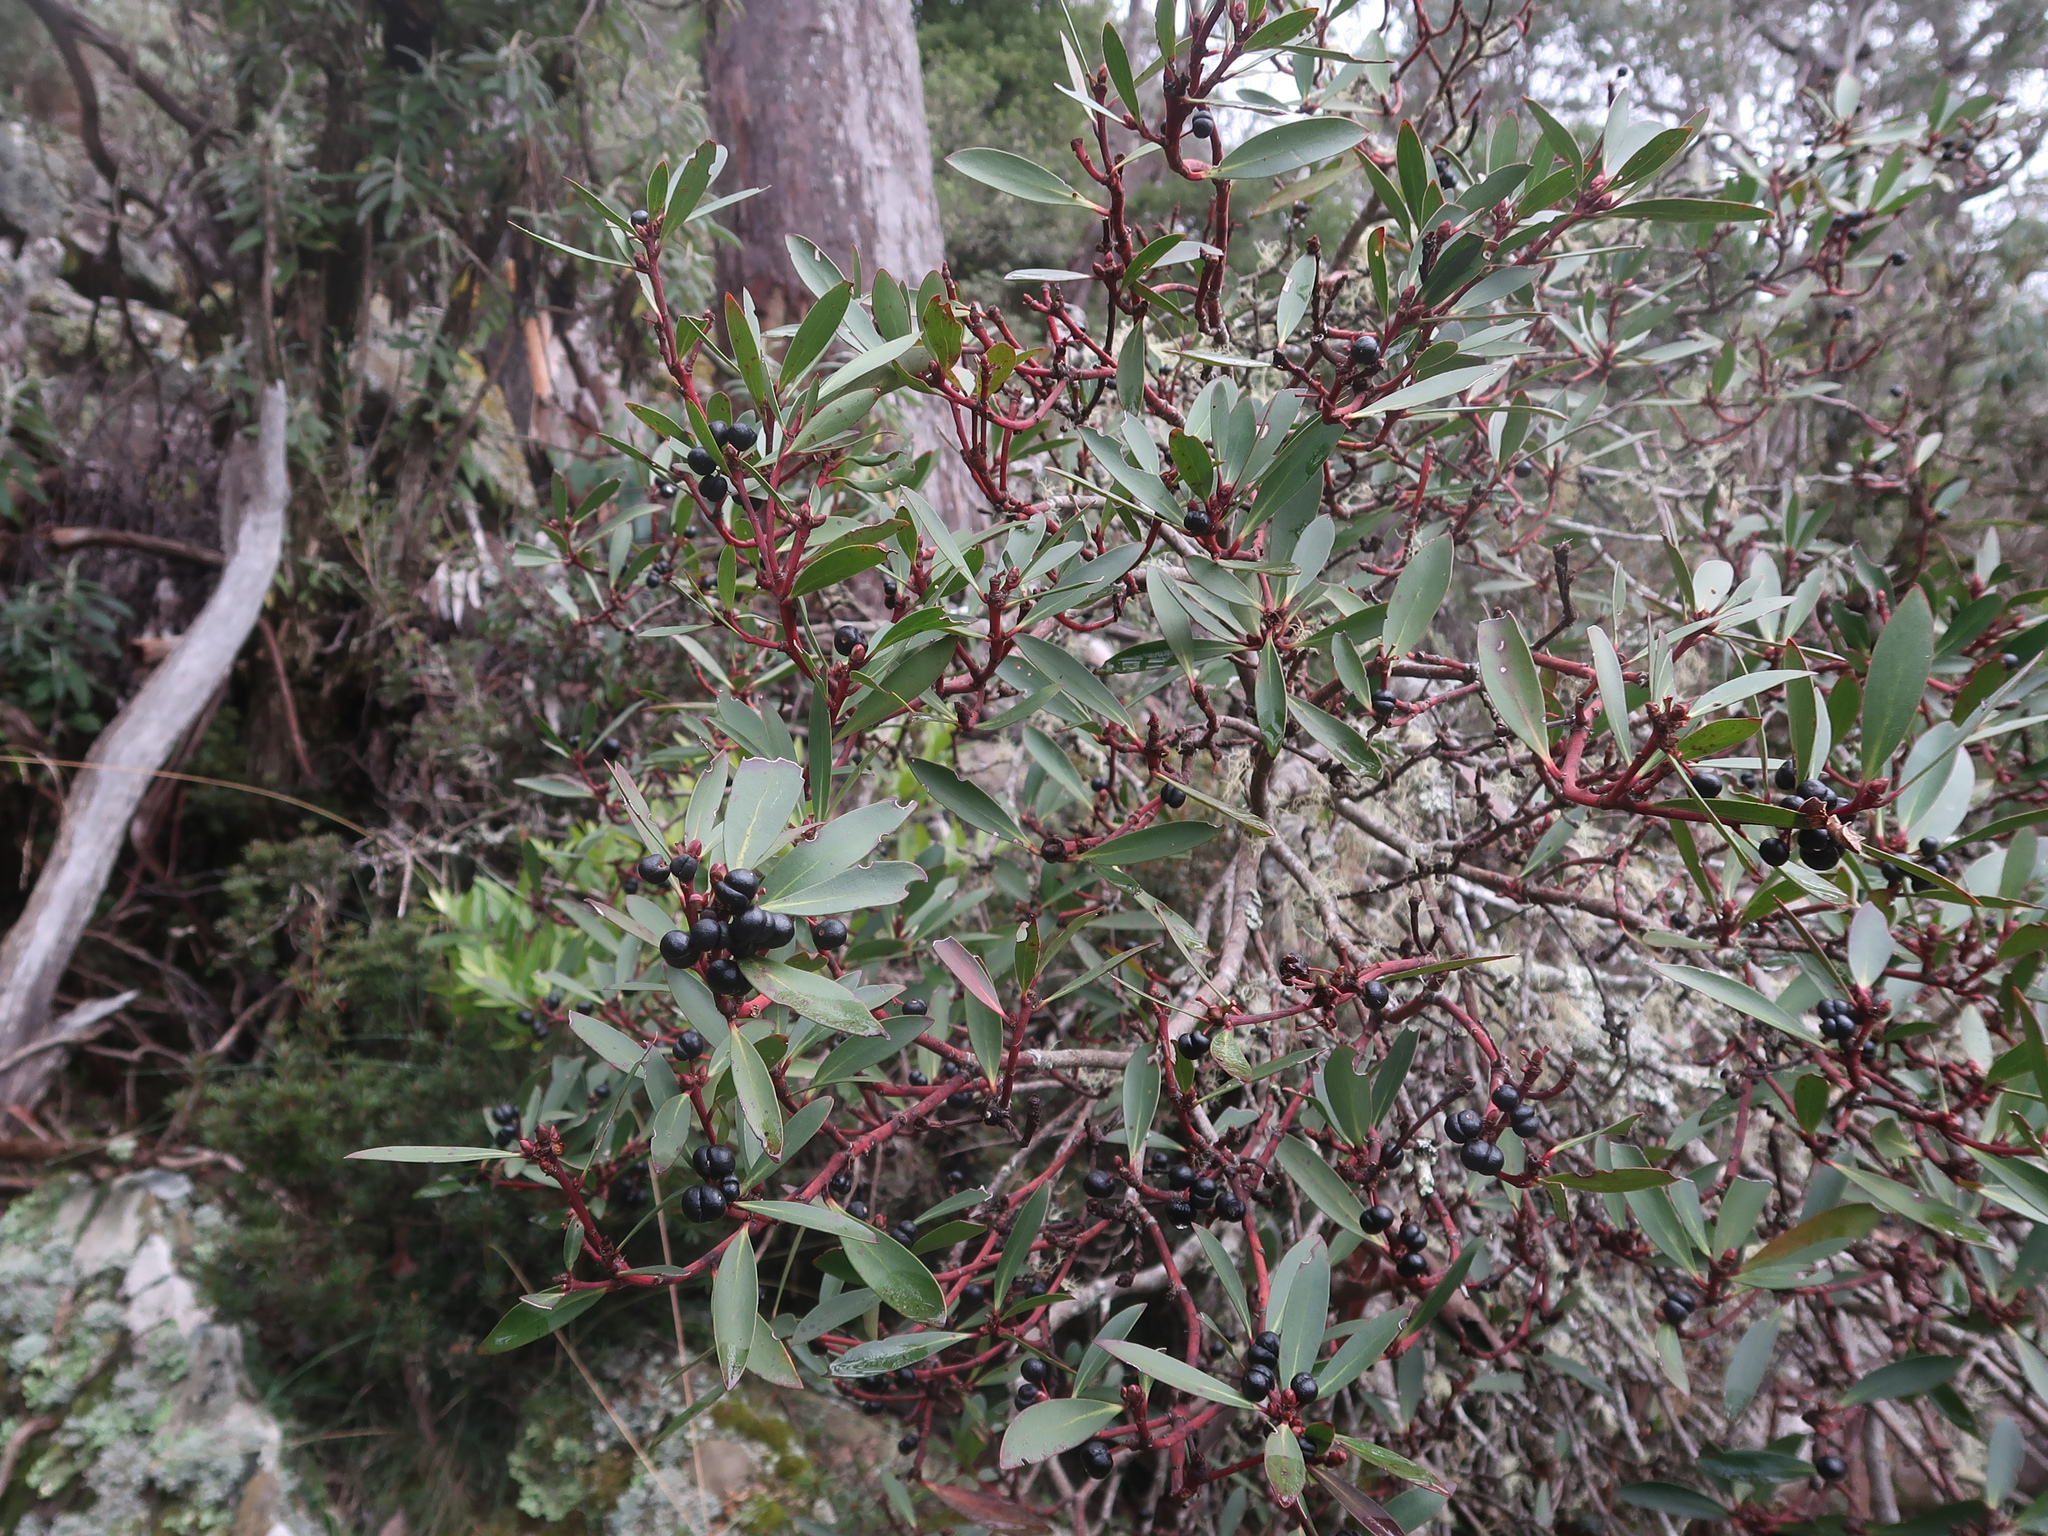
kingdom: Plantae
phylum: Tracheophyta
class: Magnoliopsida
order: Canellales
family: Winteraceae
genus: Drimys
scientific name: Drimys aromatica
